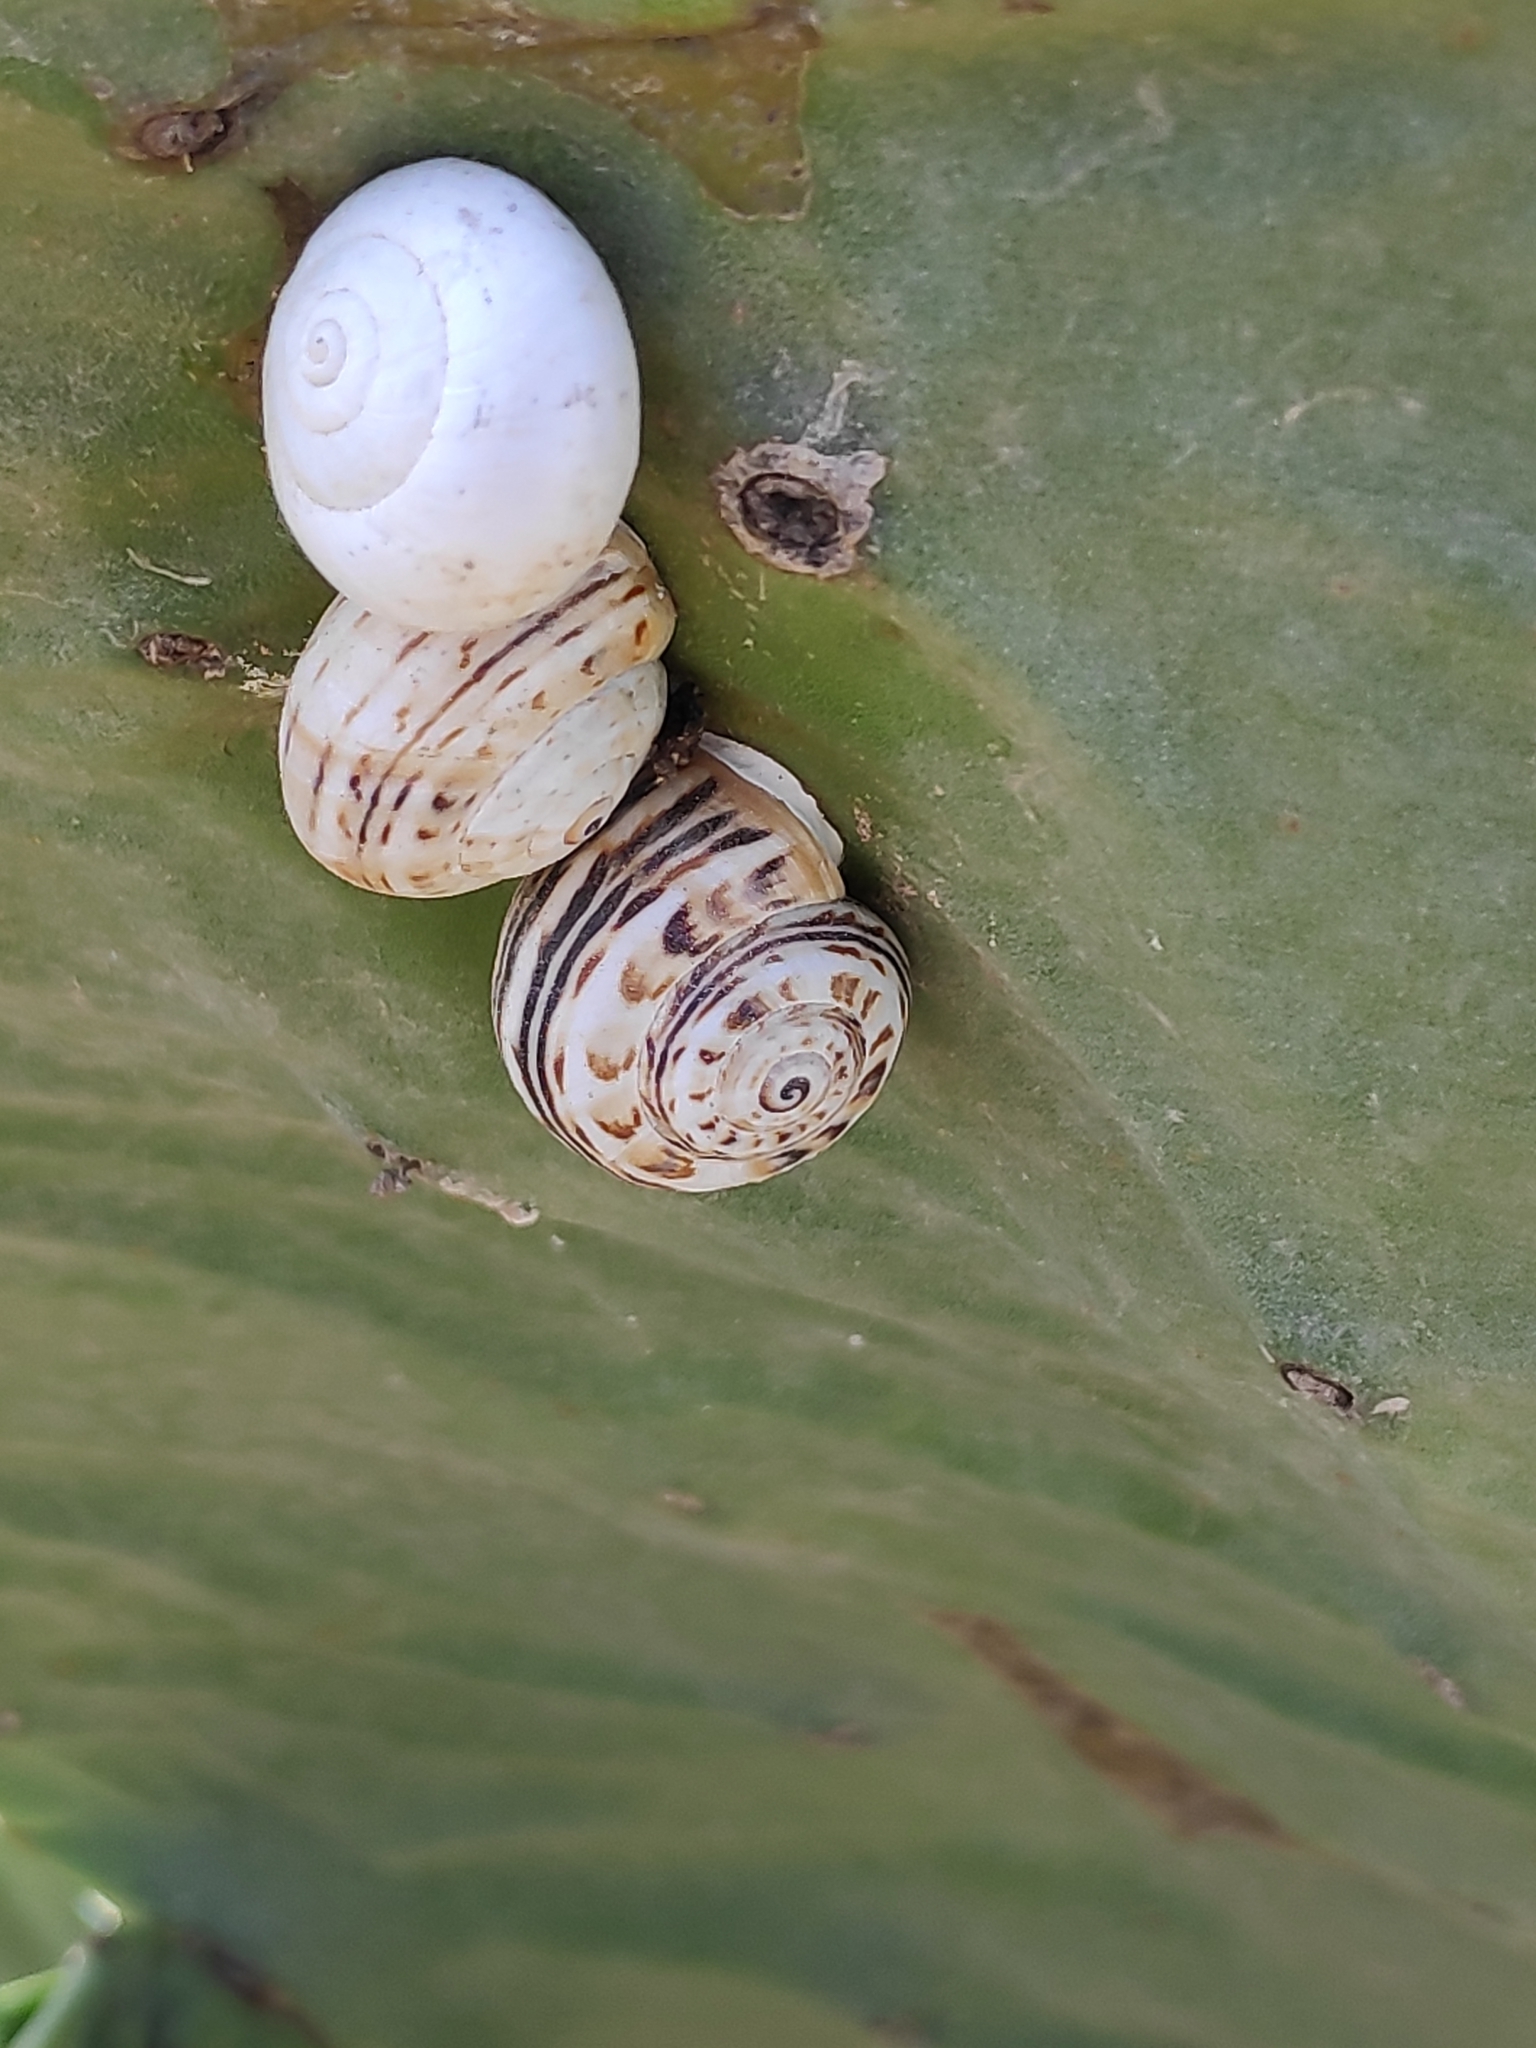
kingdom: Animalia
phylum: Mollusca
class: Gastropoda
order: Stylommatophora
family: Helicidae
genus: Theba
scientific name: Theba pisana
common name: White snail
